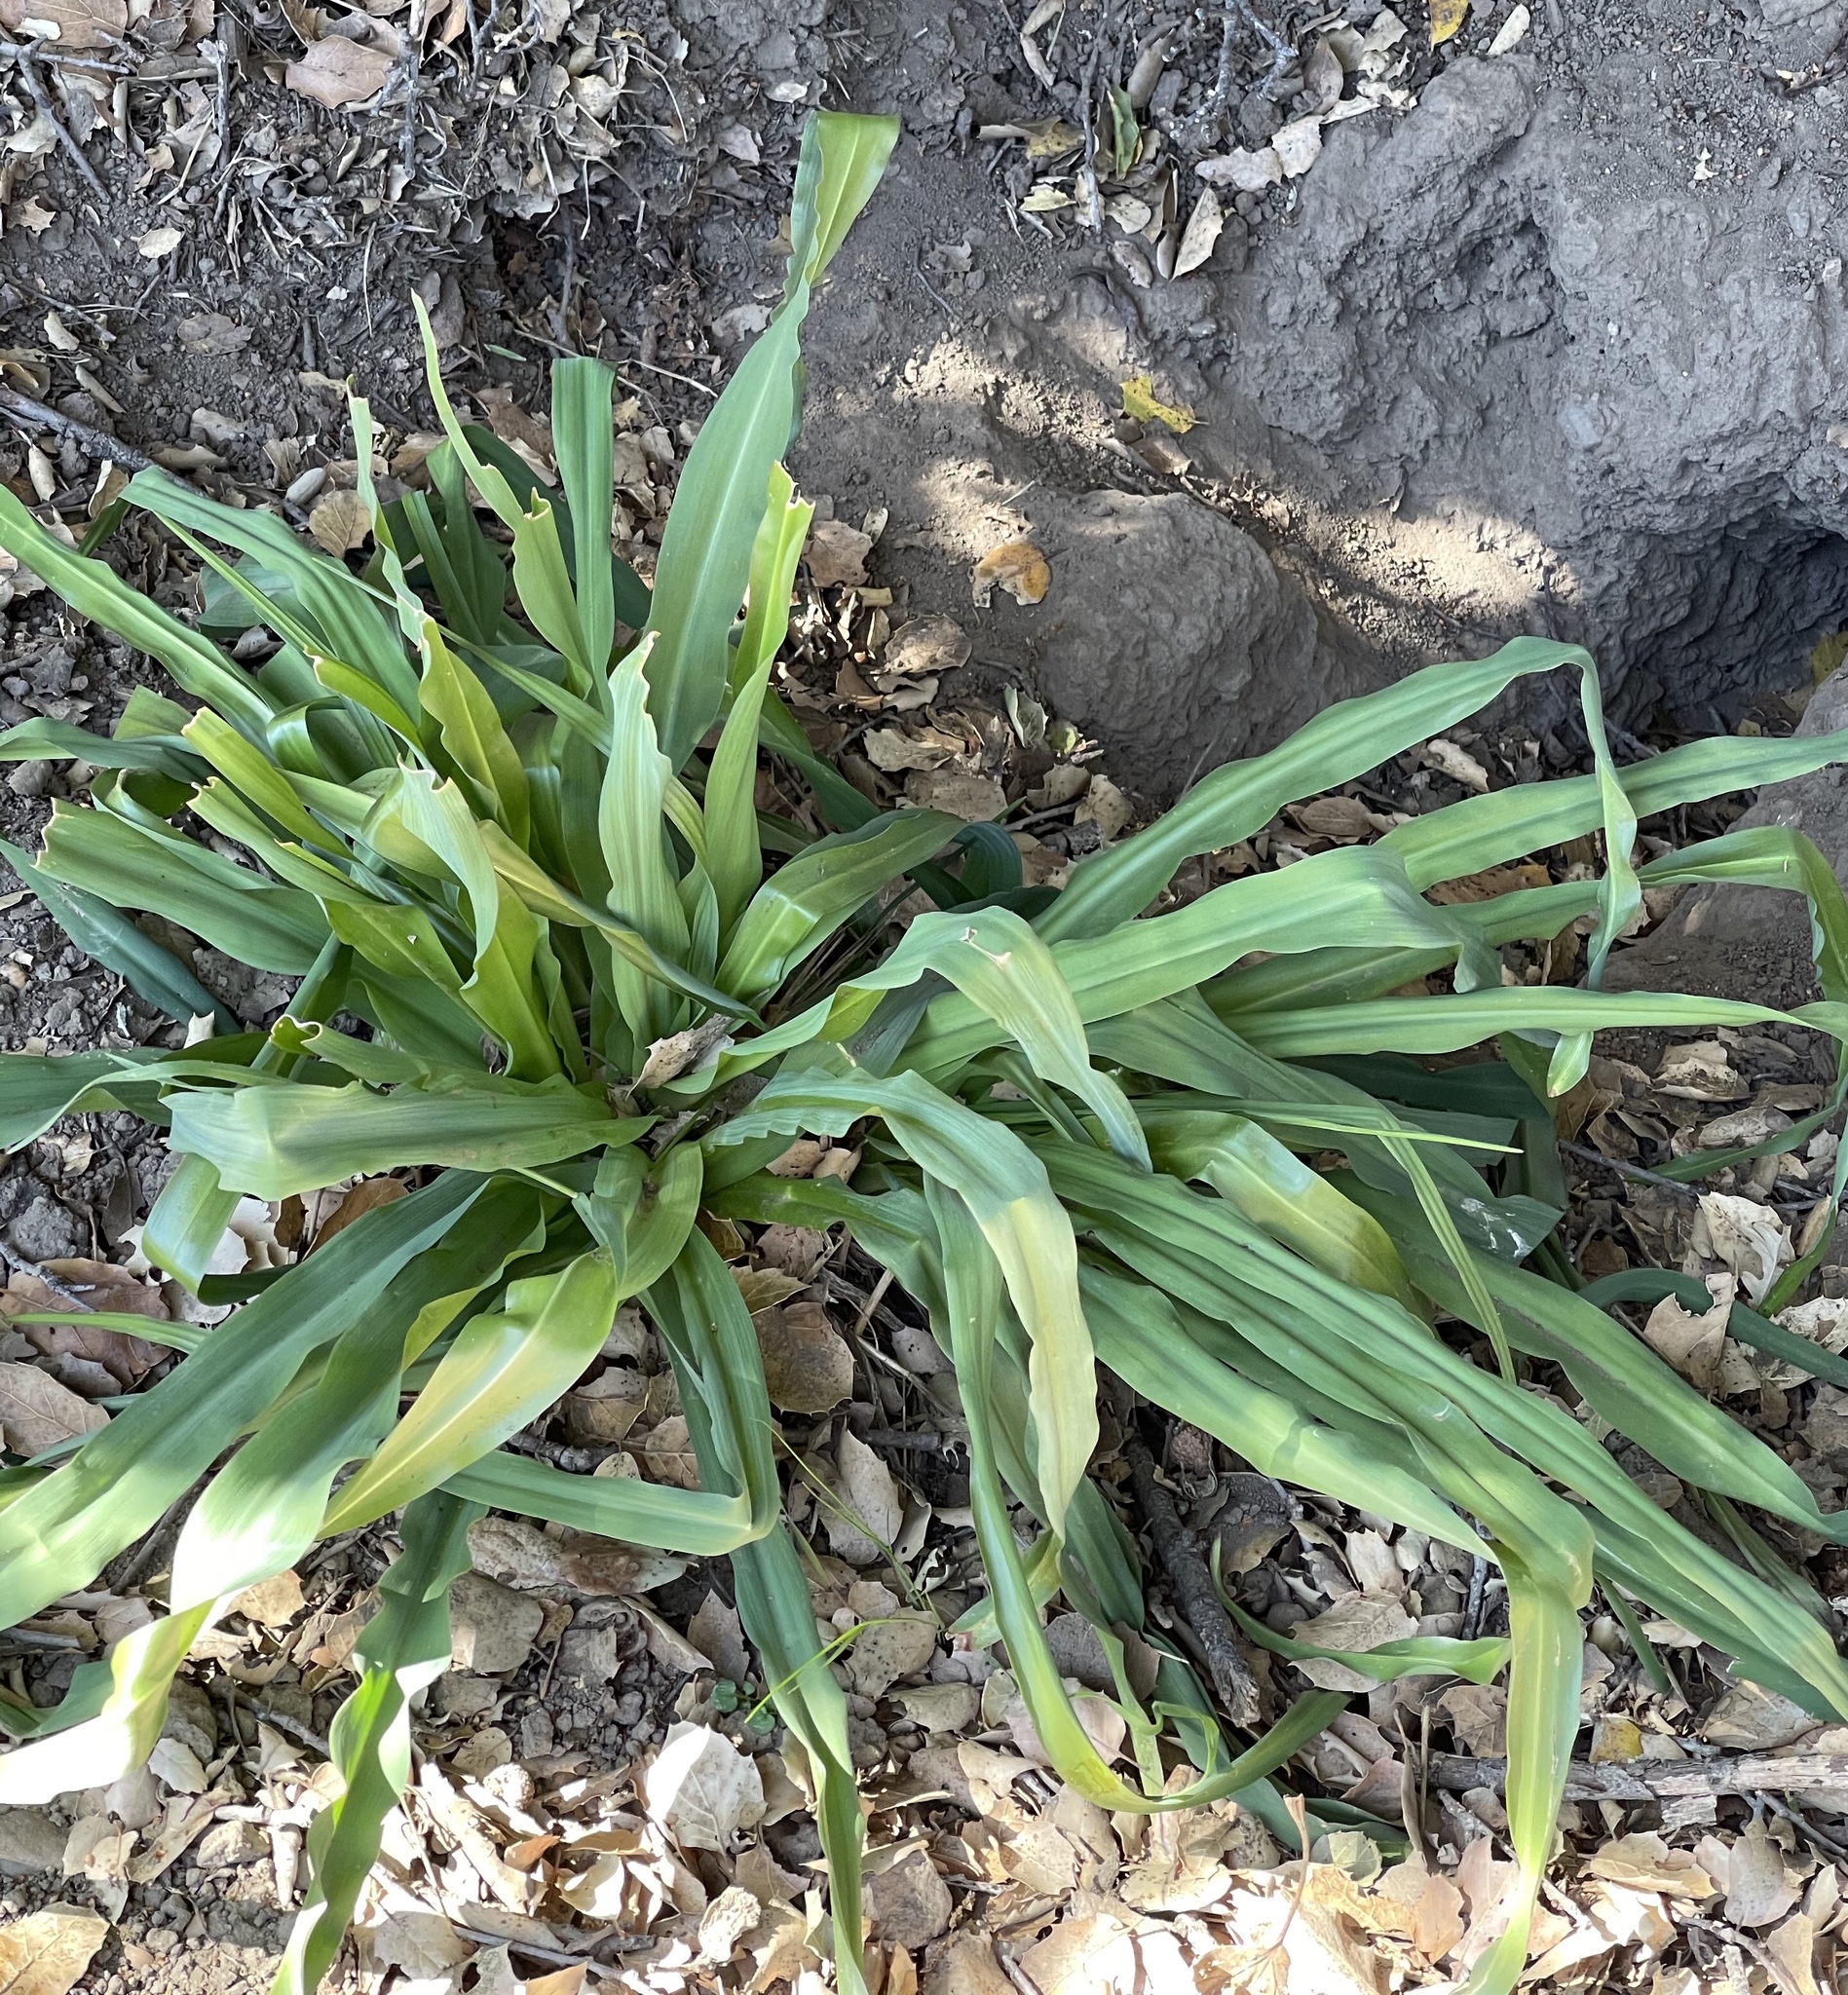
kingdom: Plantae
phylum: Tracheophyta
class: Liliopsida
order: Asparagales
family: Asparagaceae
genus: Chlorogalum
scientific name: Chlorogalum pomeridianum
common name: Amole
